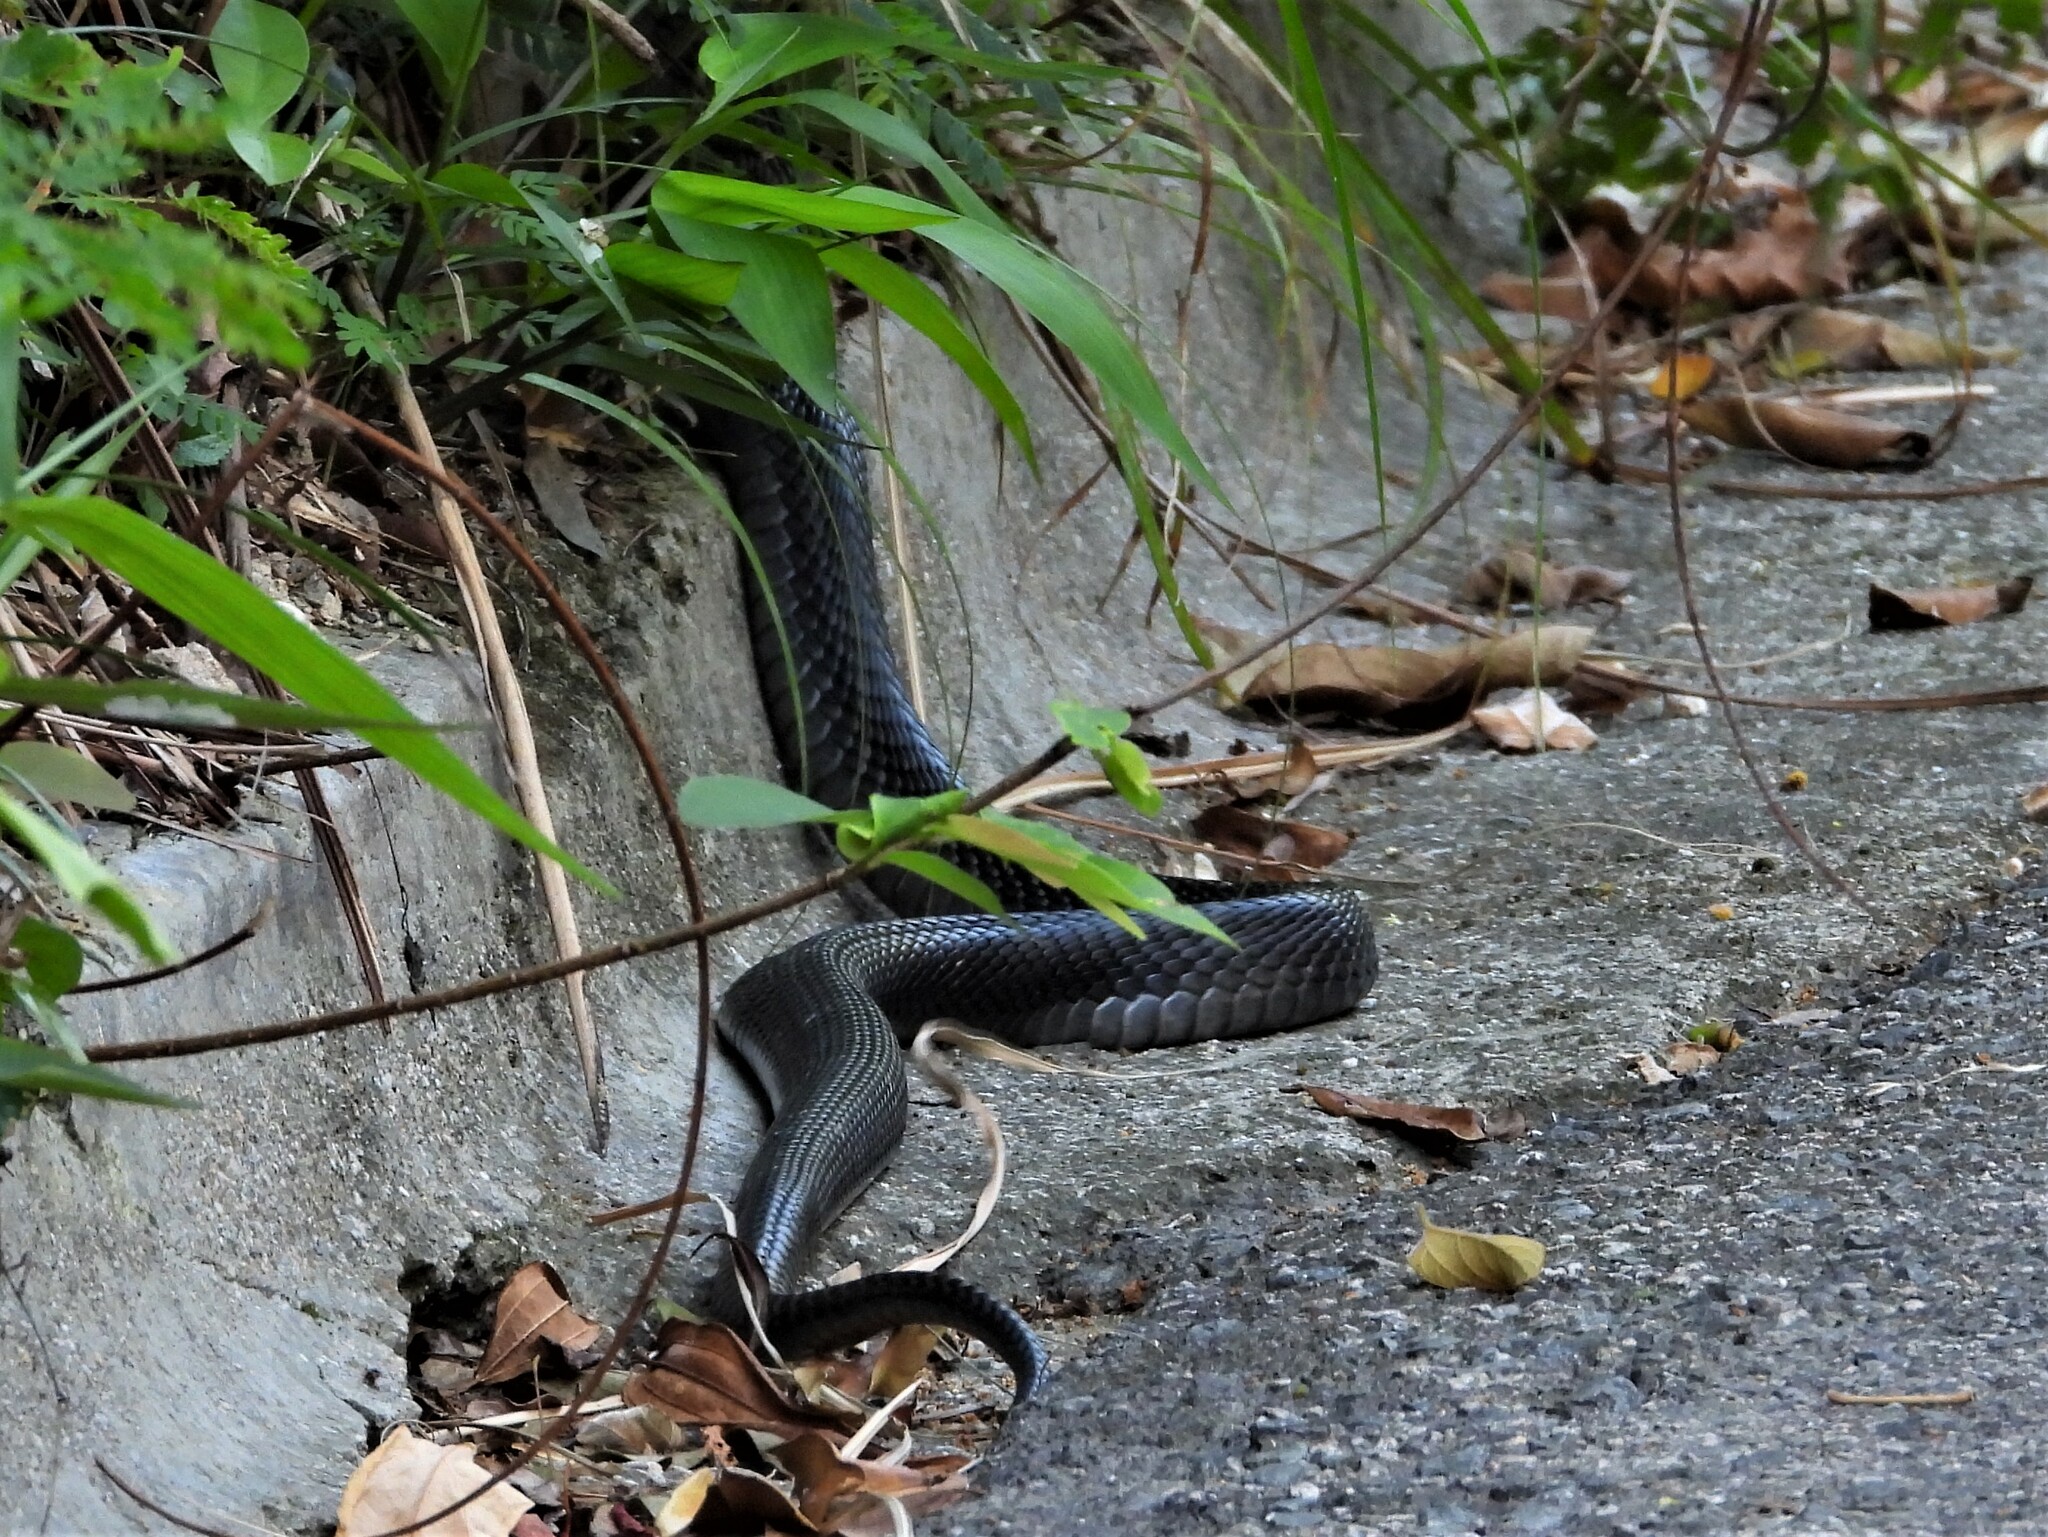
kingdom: Animalia
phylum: Chordata
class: Squamata
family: Elapidae
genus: Naja
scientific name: Naja atra
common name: Chinese cobra
